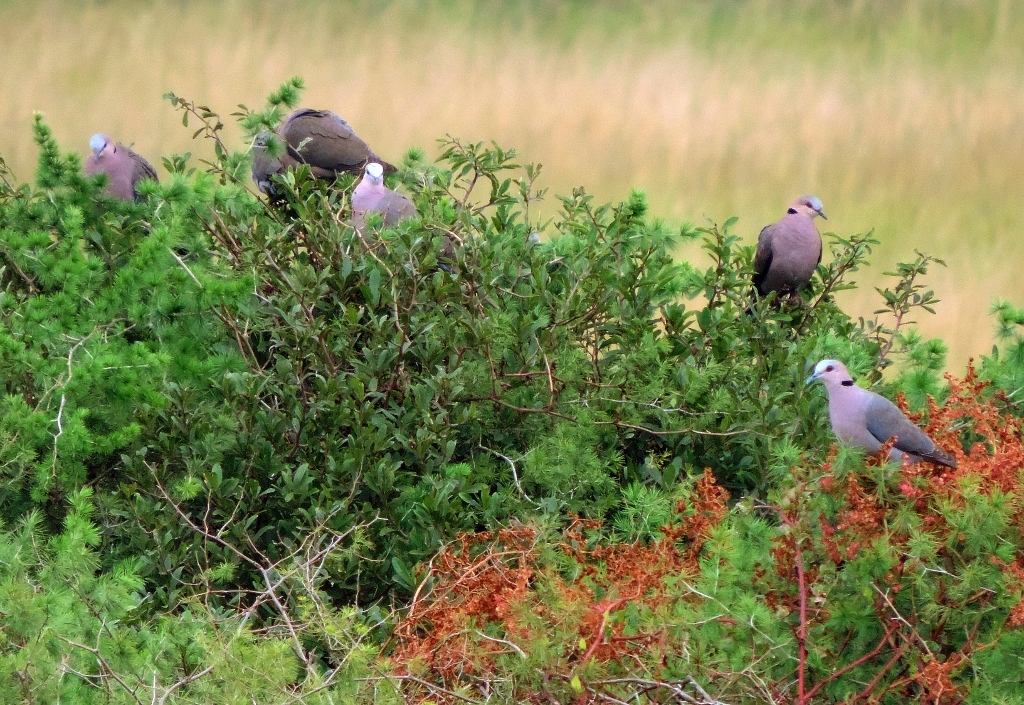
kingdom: Animalia
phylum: Chordata
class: Aves
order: Columbiformes
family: Columbidae
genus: Streptopelia
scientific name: Streptopelia semitorquata
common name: Red-eyed dove
